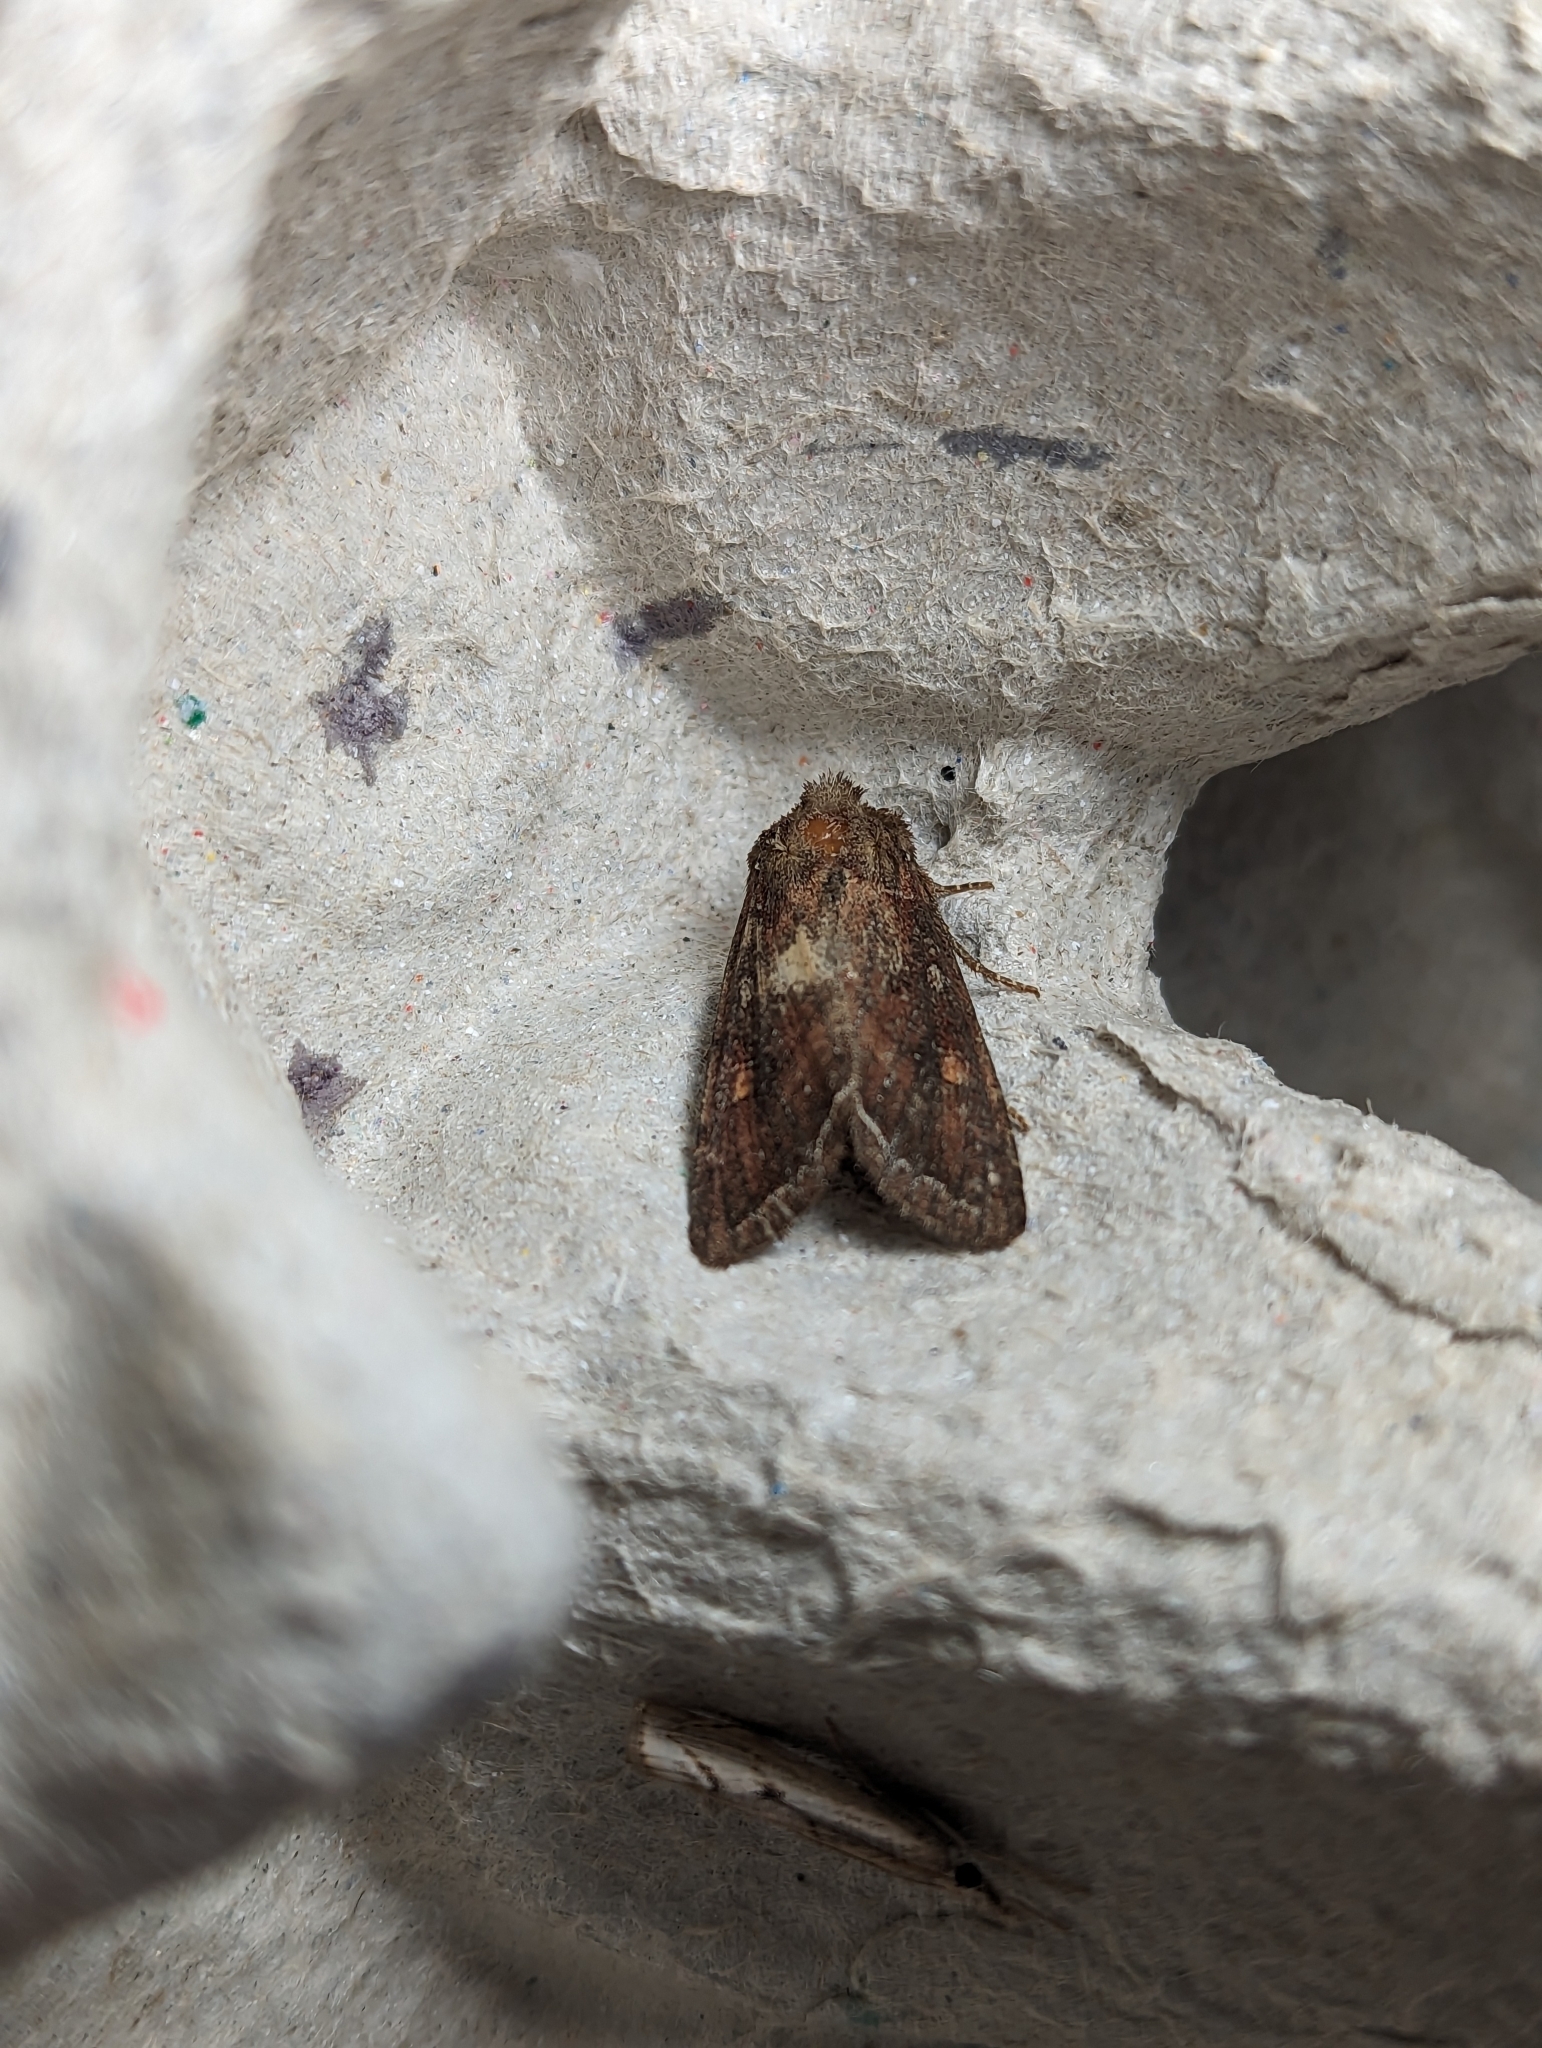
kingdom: Animalia
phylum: Arthropoda
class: Insecta
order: Lepidoptera
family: Noctuidae
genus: Lacanobia
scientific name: Lacanobia oleracea
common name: Bright-line brown-eye
